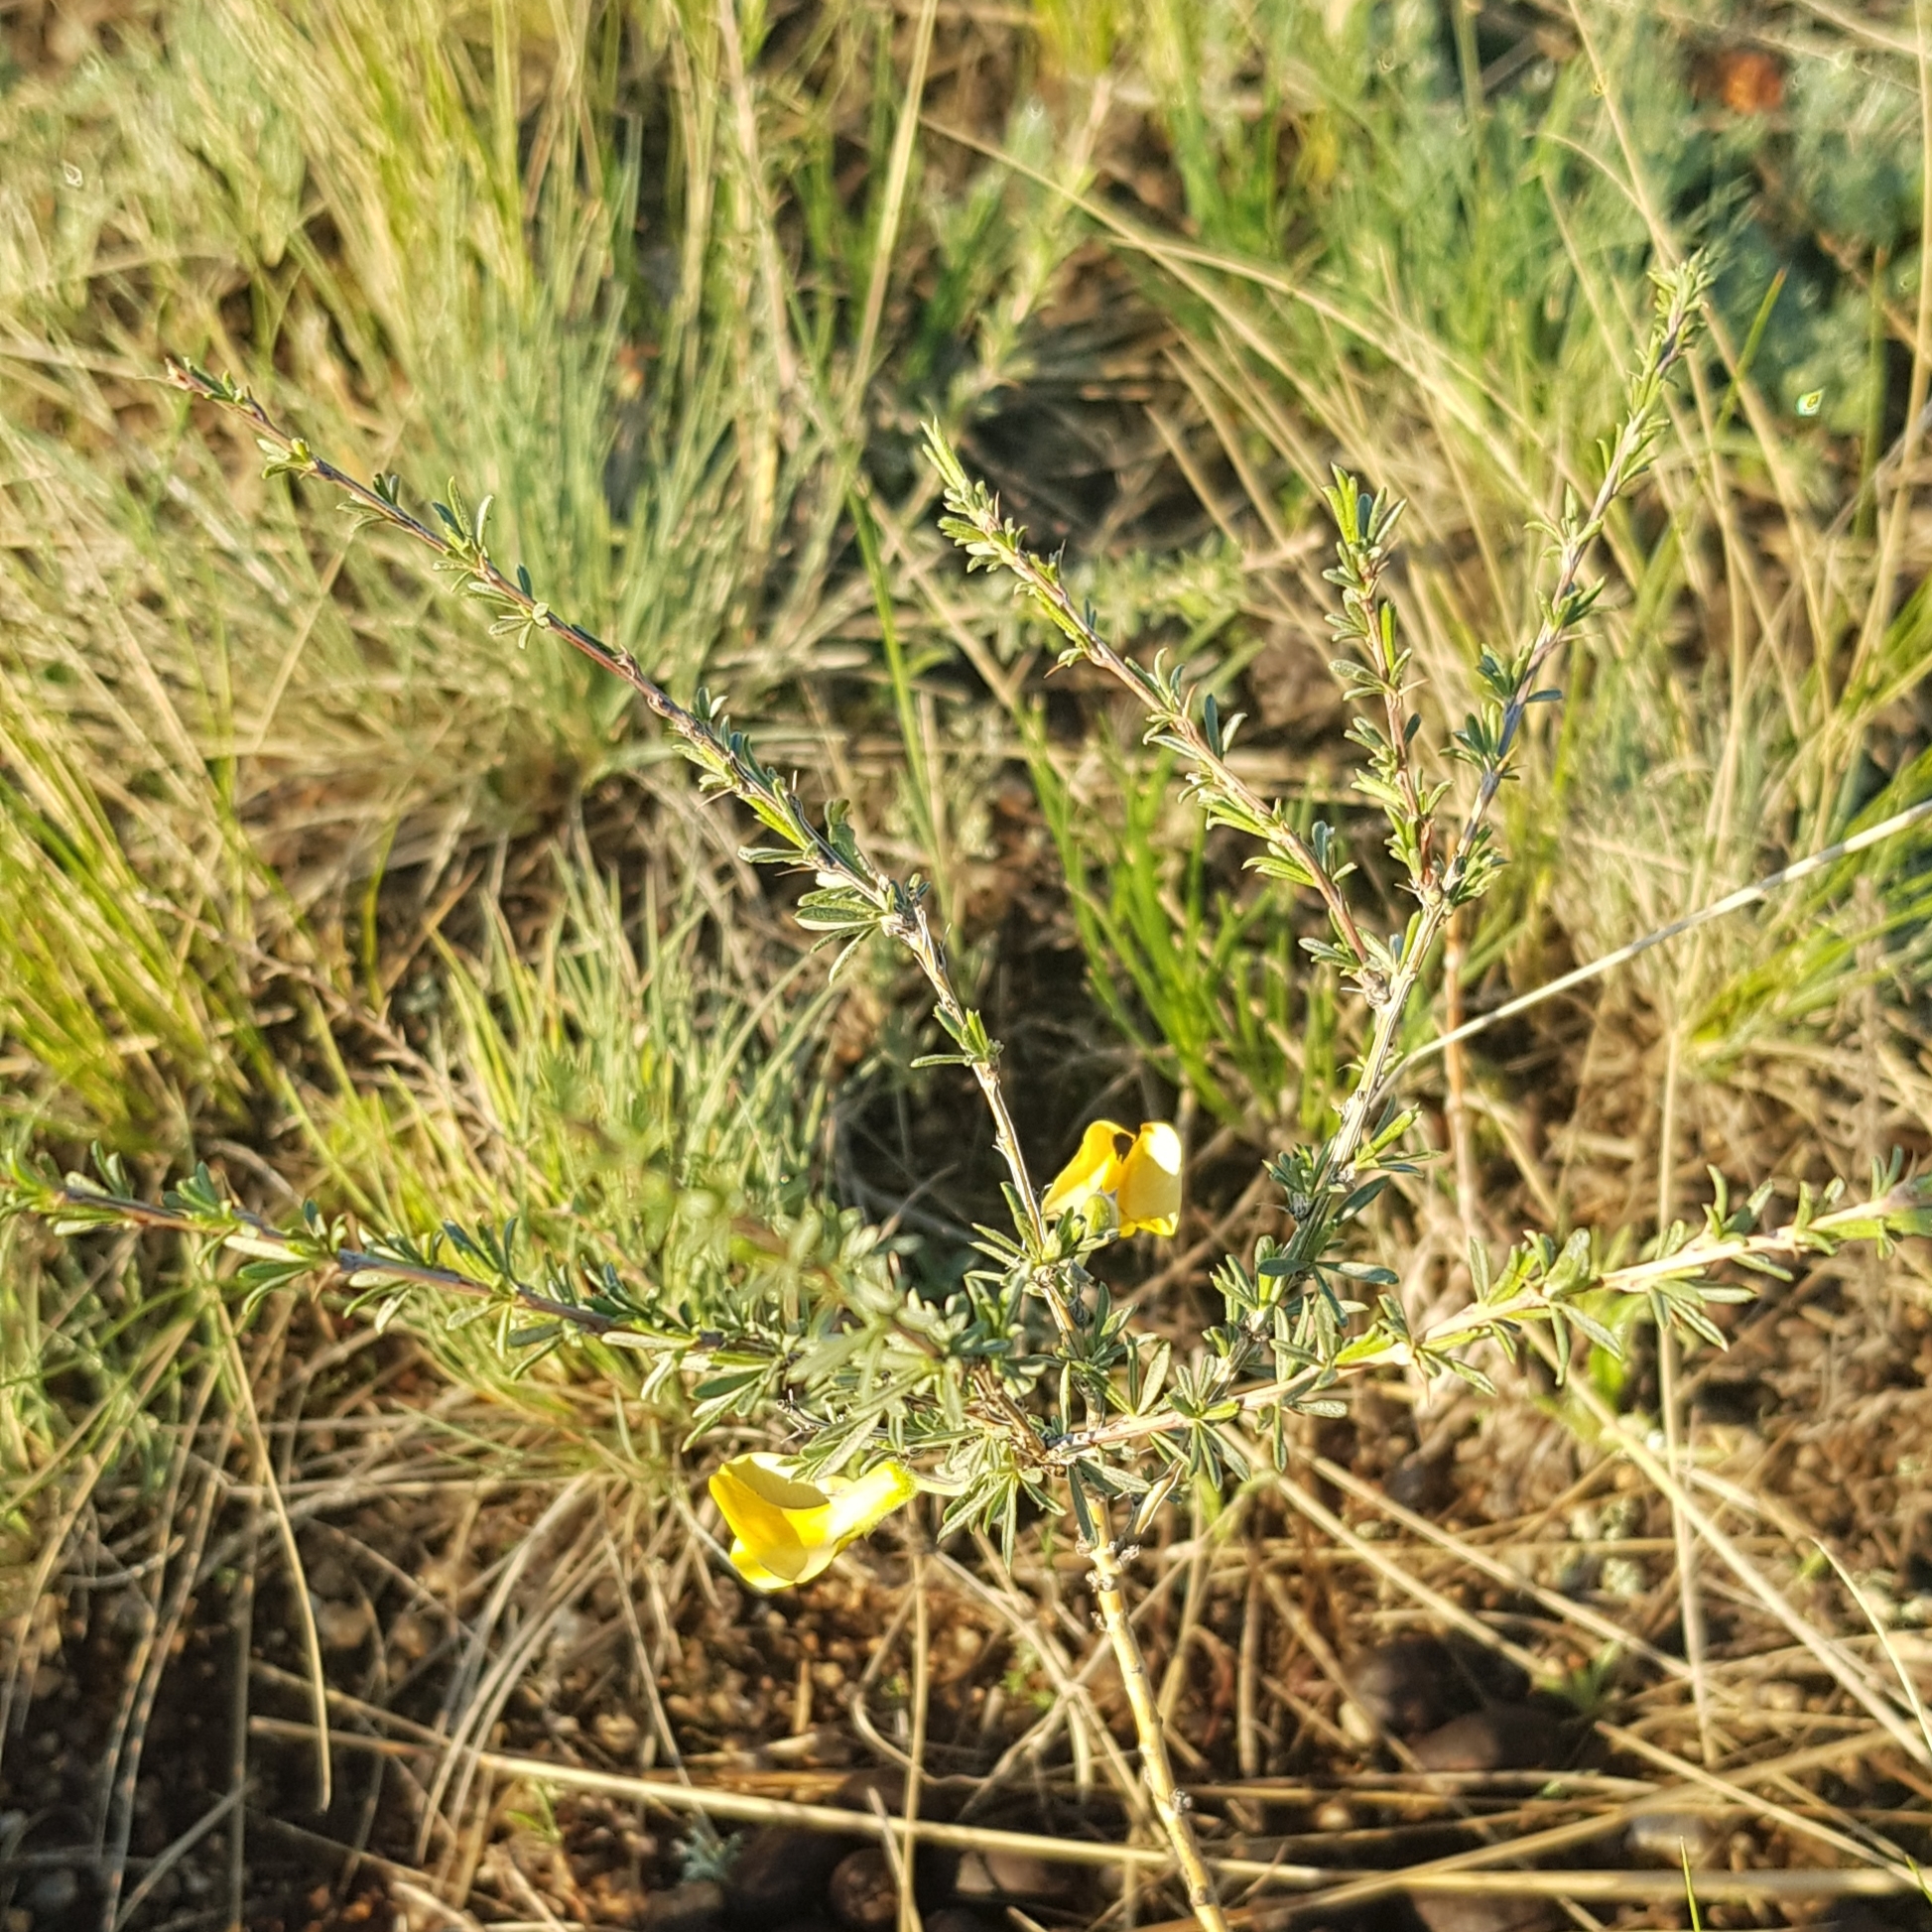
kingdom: Plantae
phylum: Tracheophyta
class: Magnoliopsida
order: Fabales
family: Fabaceae
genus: Caragana
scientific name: Caragana pygmaea
